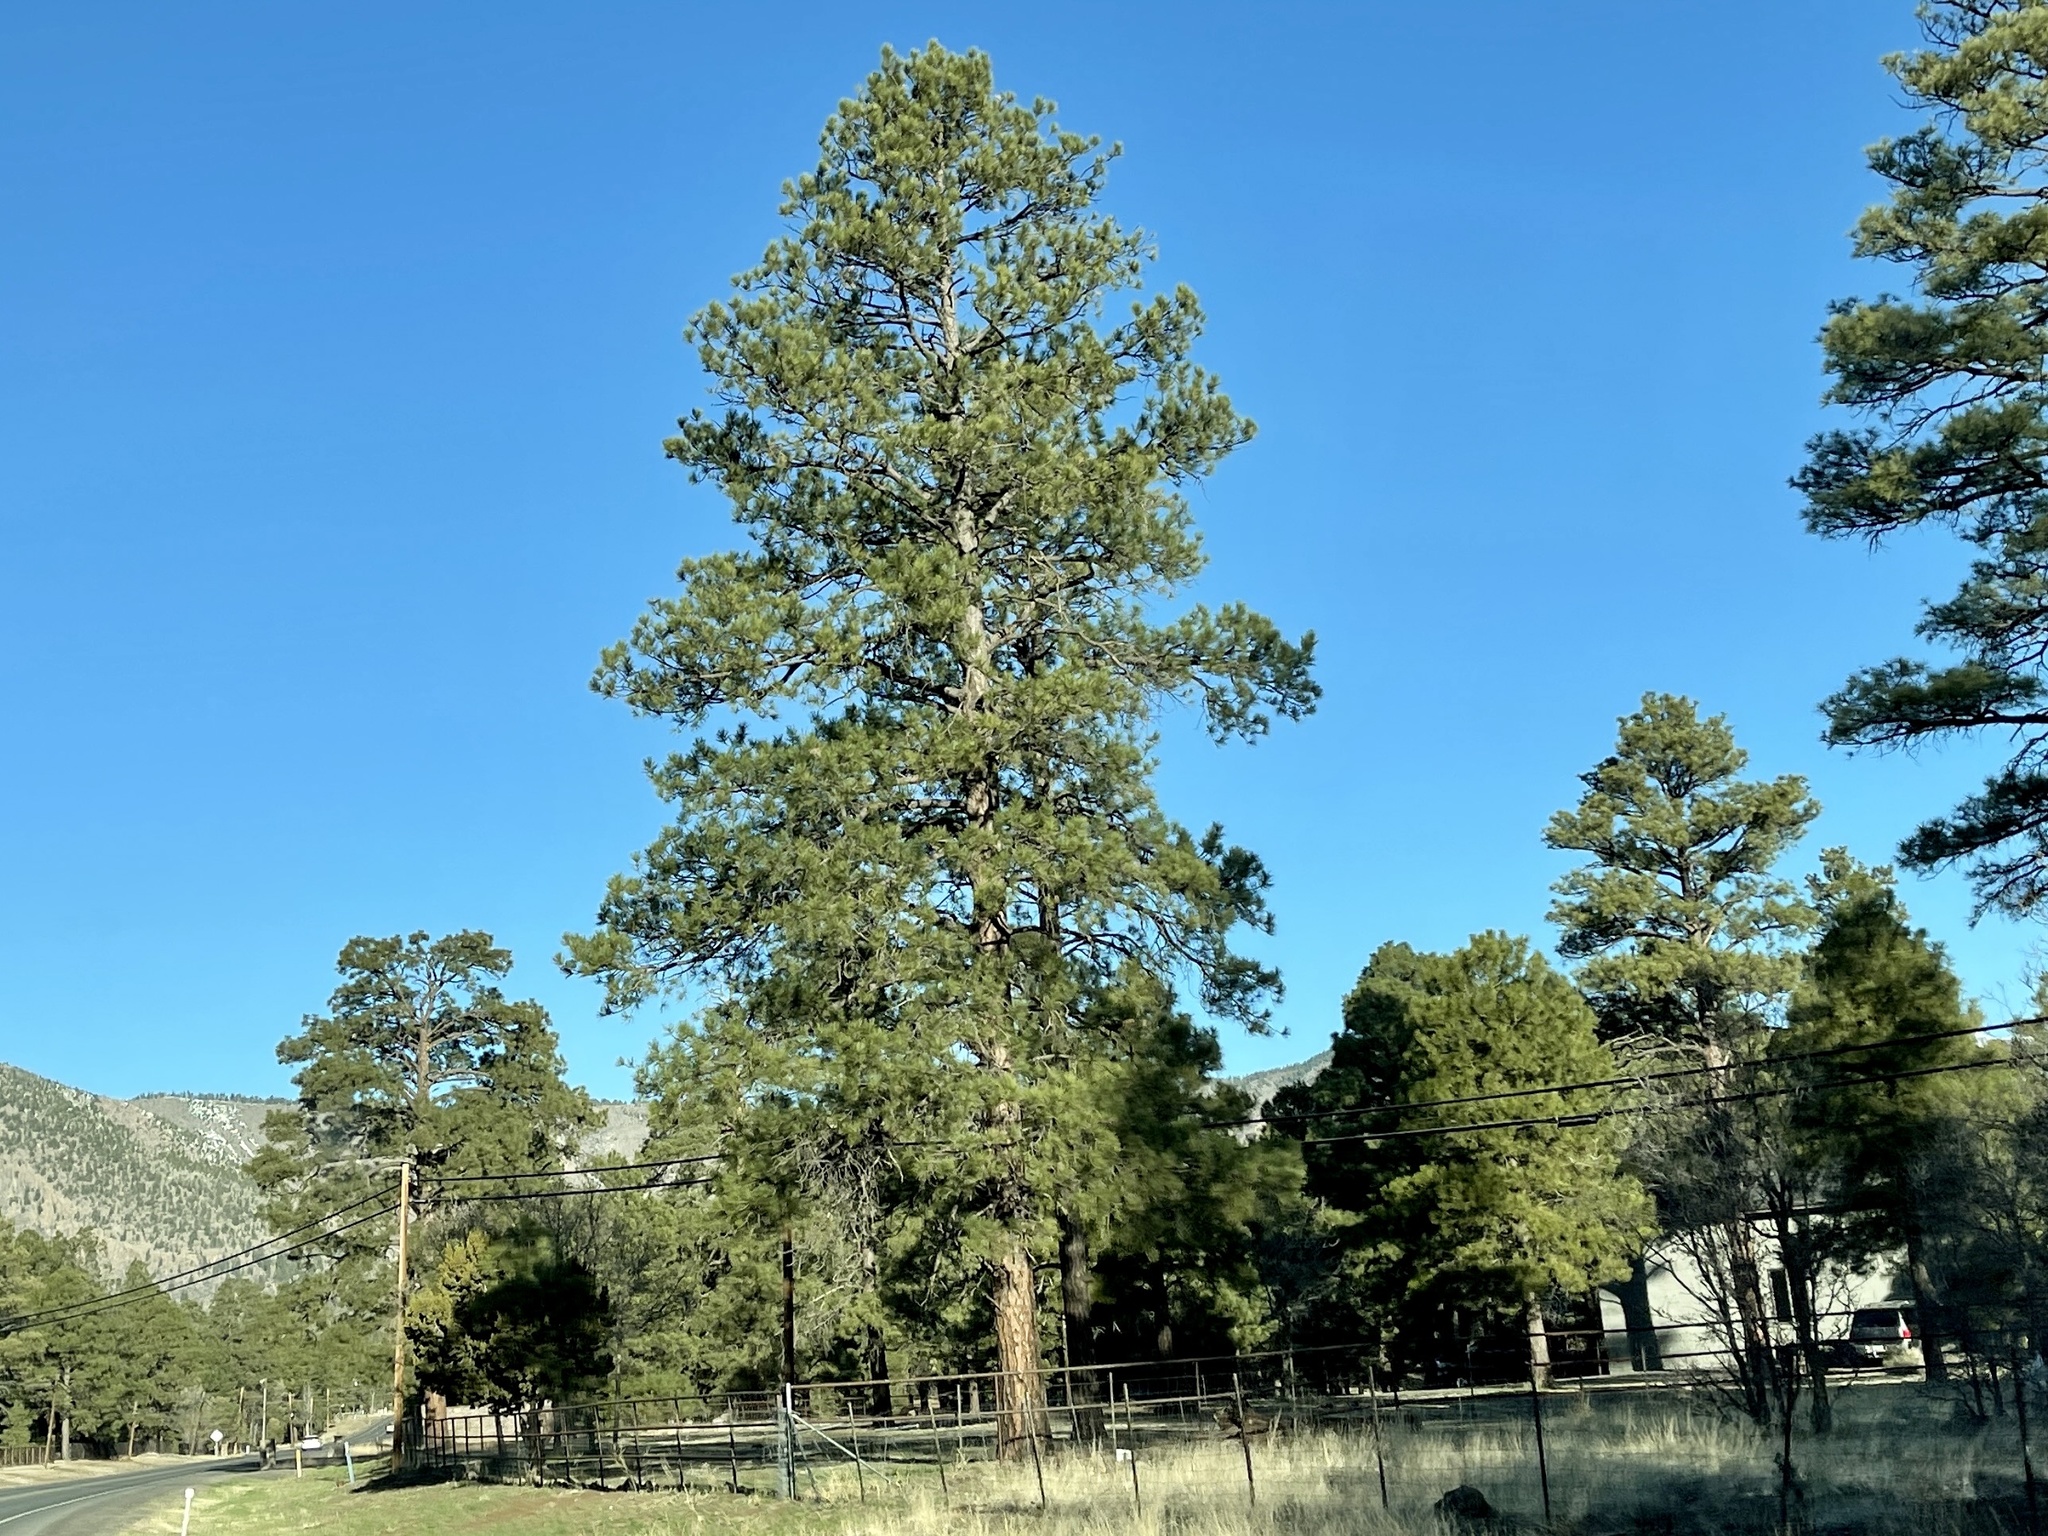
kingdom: Plantae
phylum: Tracheophyta
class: Pinopsida
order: Pinales
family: Pinaceae
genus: Pinus
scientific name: Pinus ponderosa
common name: Western yellow-pine
